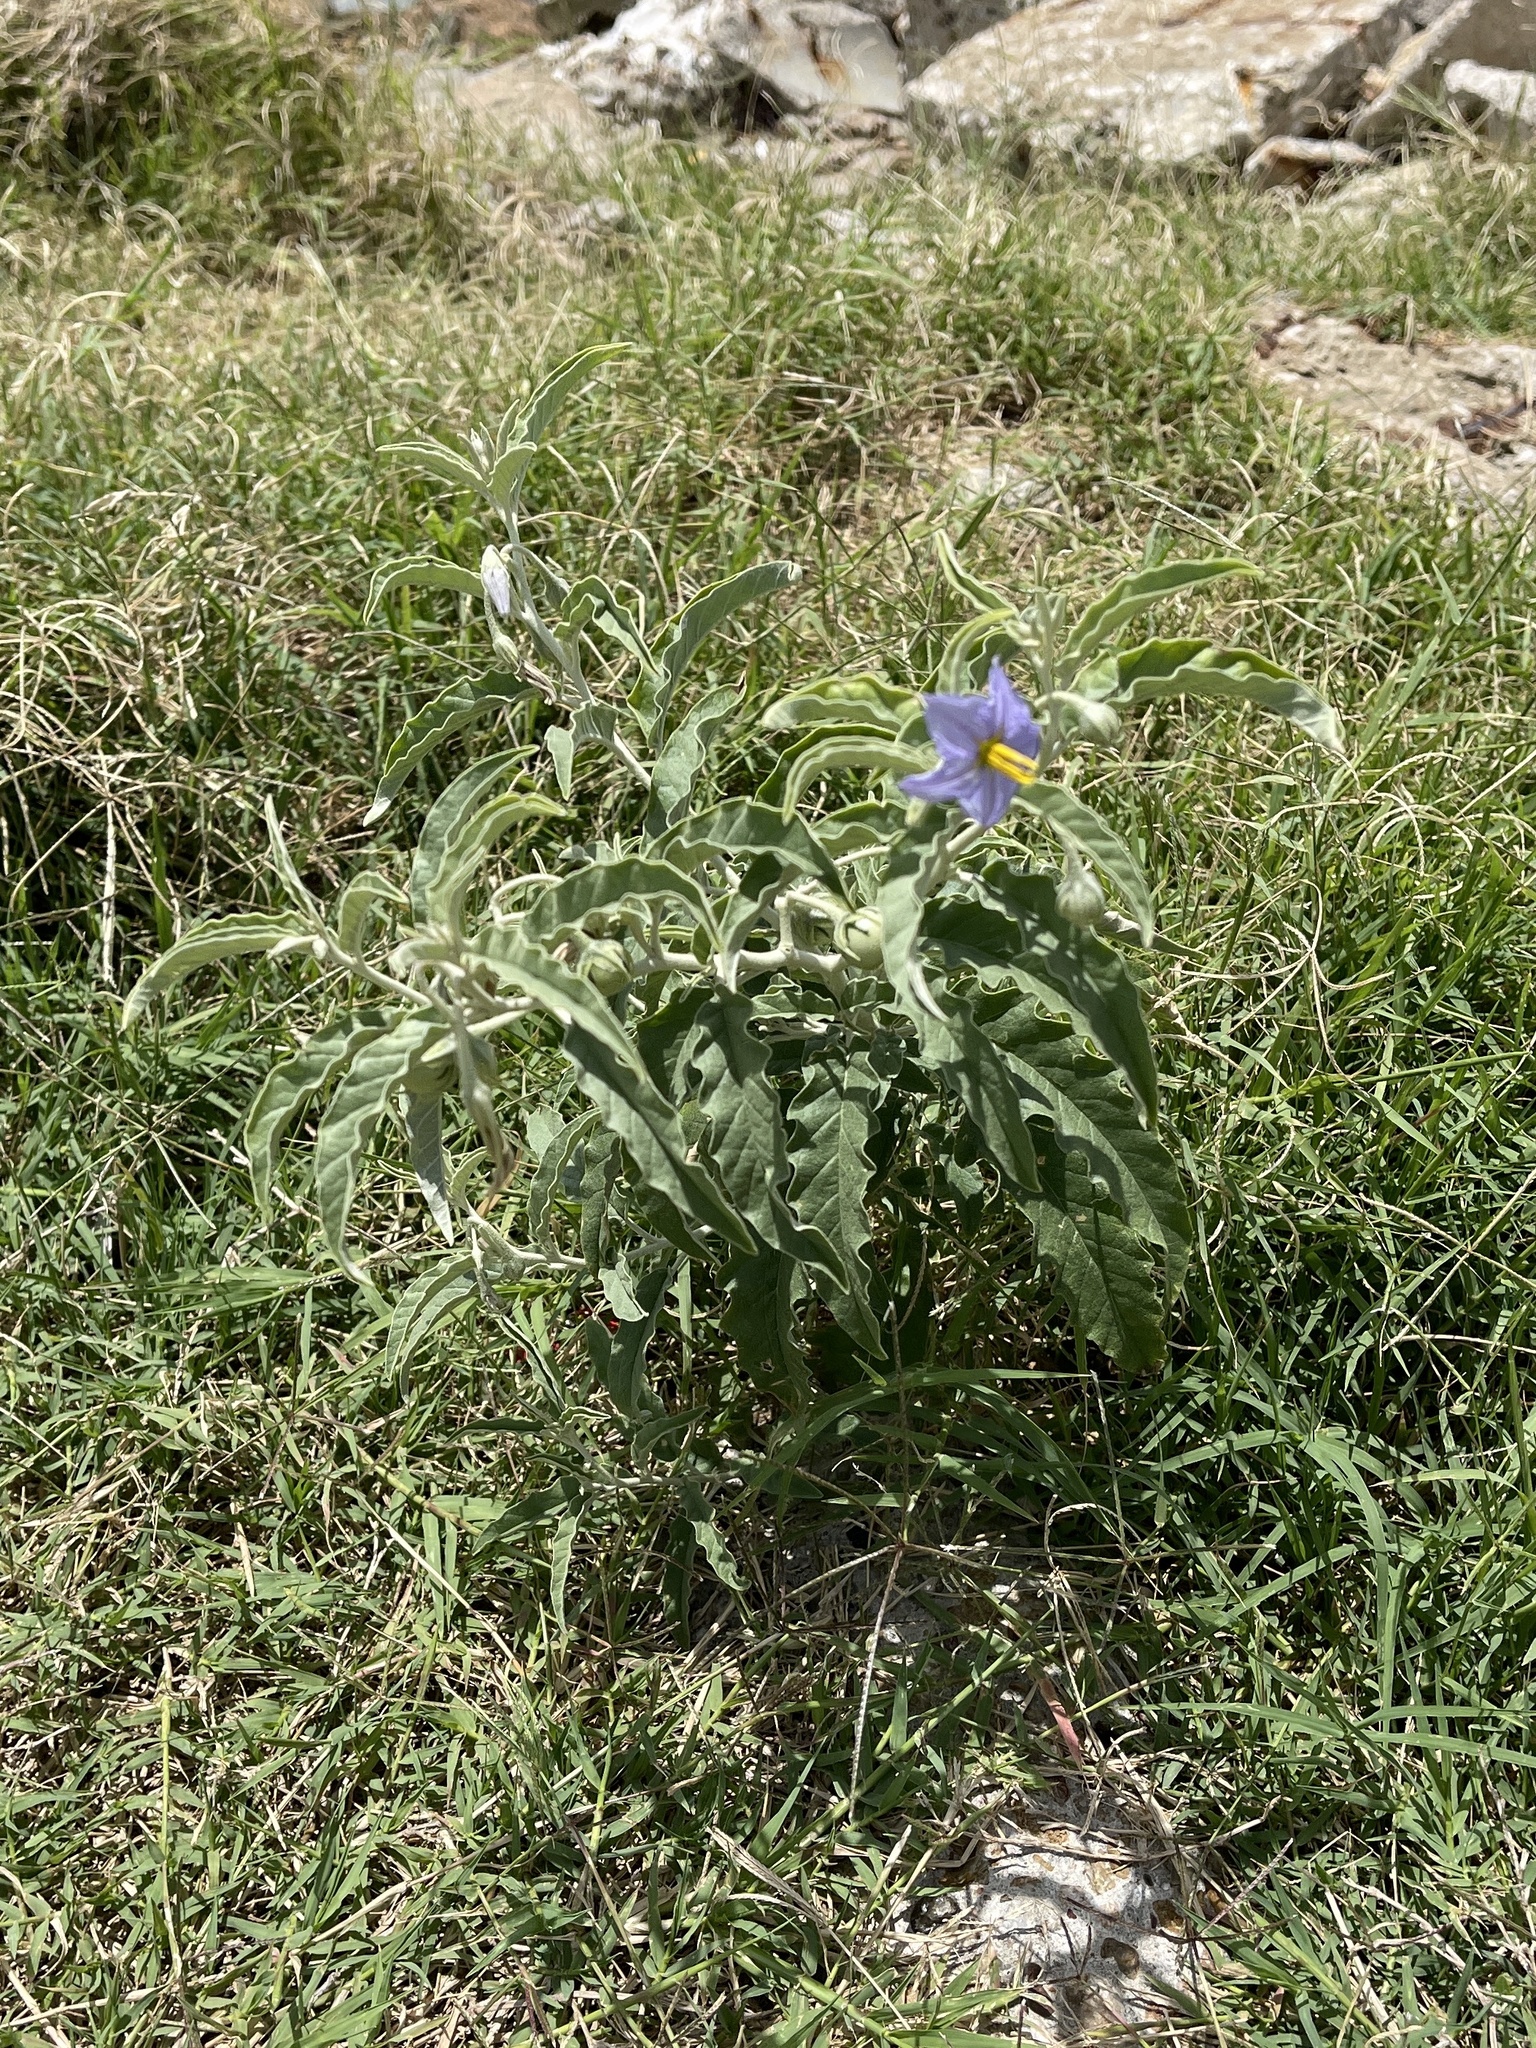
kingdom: Plantae
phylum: Tracheophyta
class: Magnoliopsida
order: Solanales
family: Solanaceae
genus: Solanum
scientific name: Solanum elaeagnifolium
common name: Silverleaf nightshade
